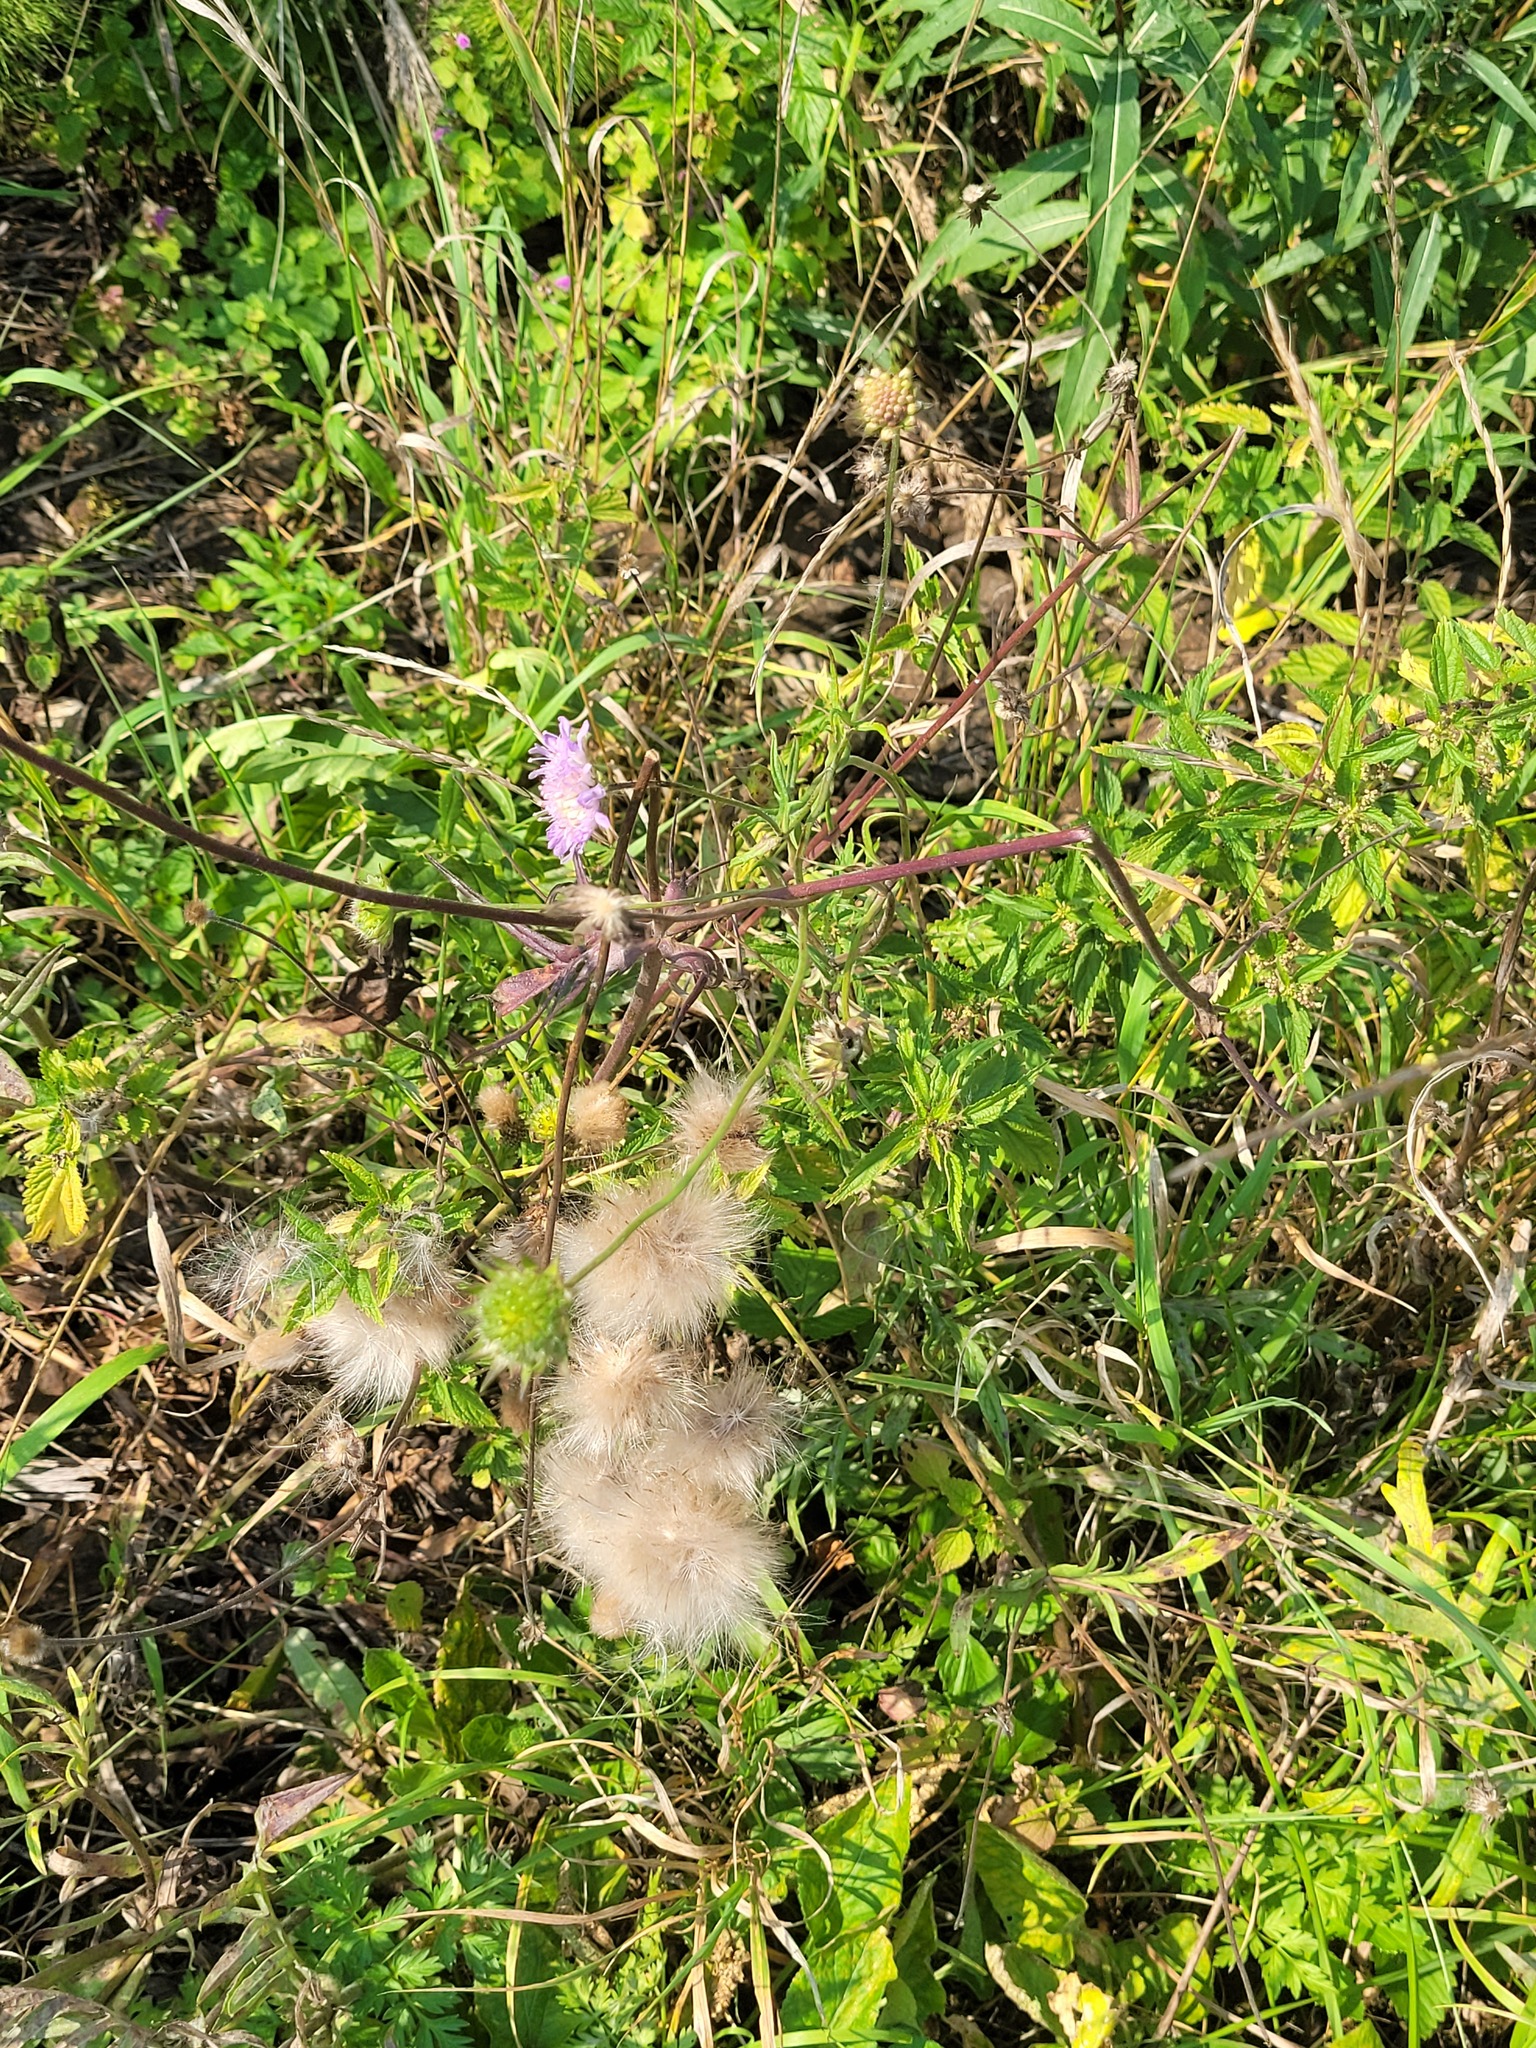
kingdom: Plantae
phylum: Tracheophyta
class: Magnoliopsida
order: Dipsacales
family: Caprifoliaceae
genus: Knautia
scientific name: Knautia arvensis
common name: Field scabiosa
